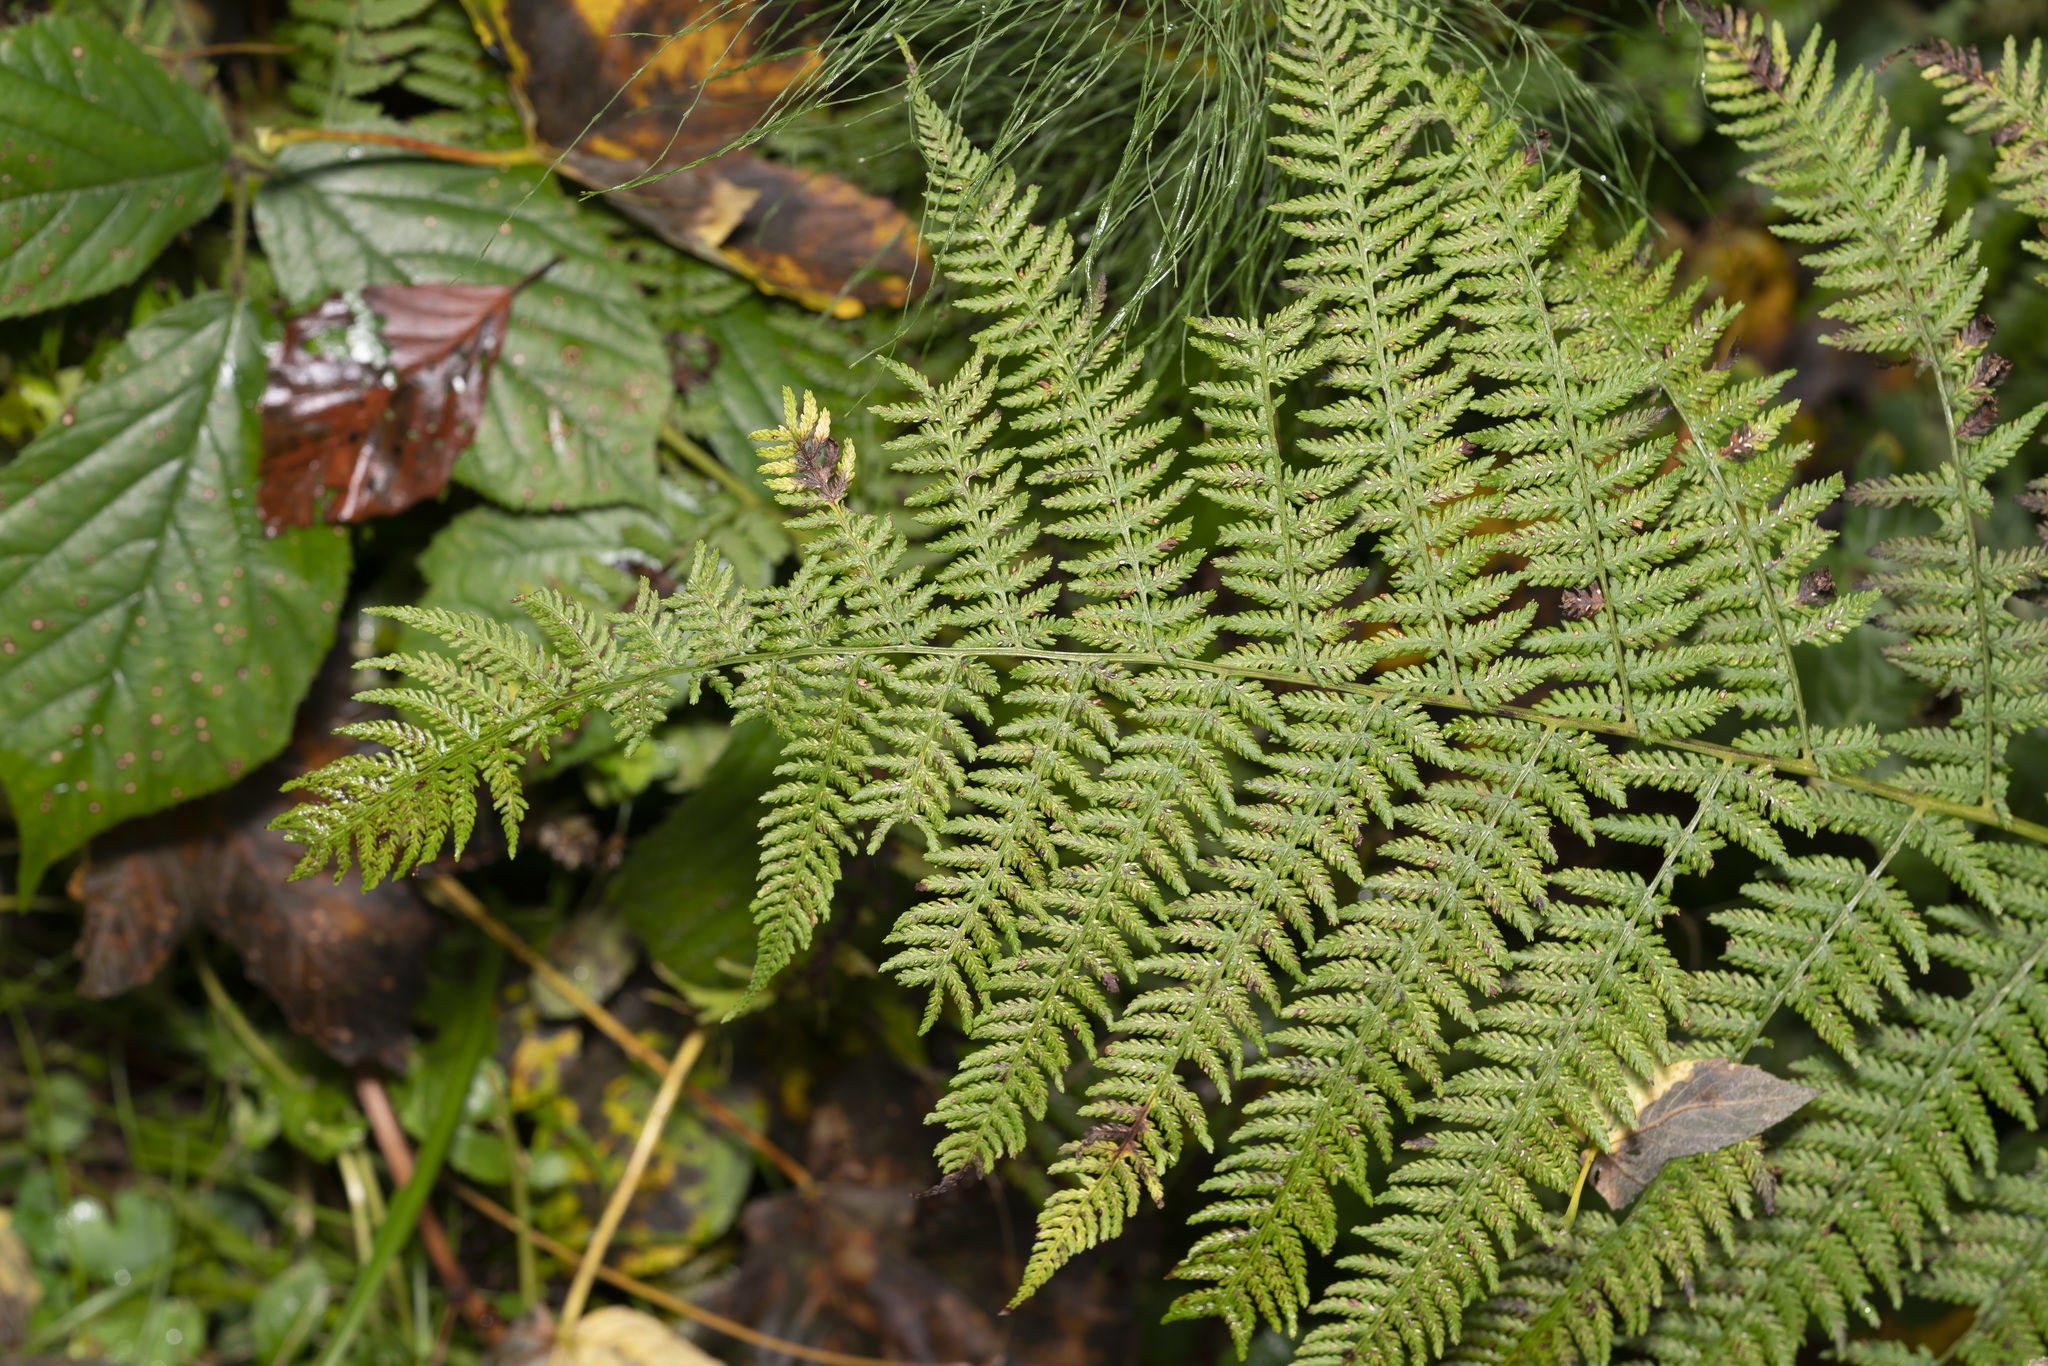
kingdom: Plantae
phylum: Tracheophyta
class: Polypodiopsida
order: Polypodiales
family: Athyriaceae
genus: Athyrium
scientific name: Athyrium filix-femina
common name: Lady fern
